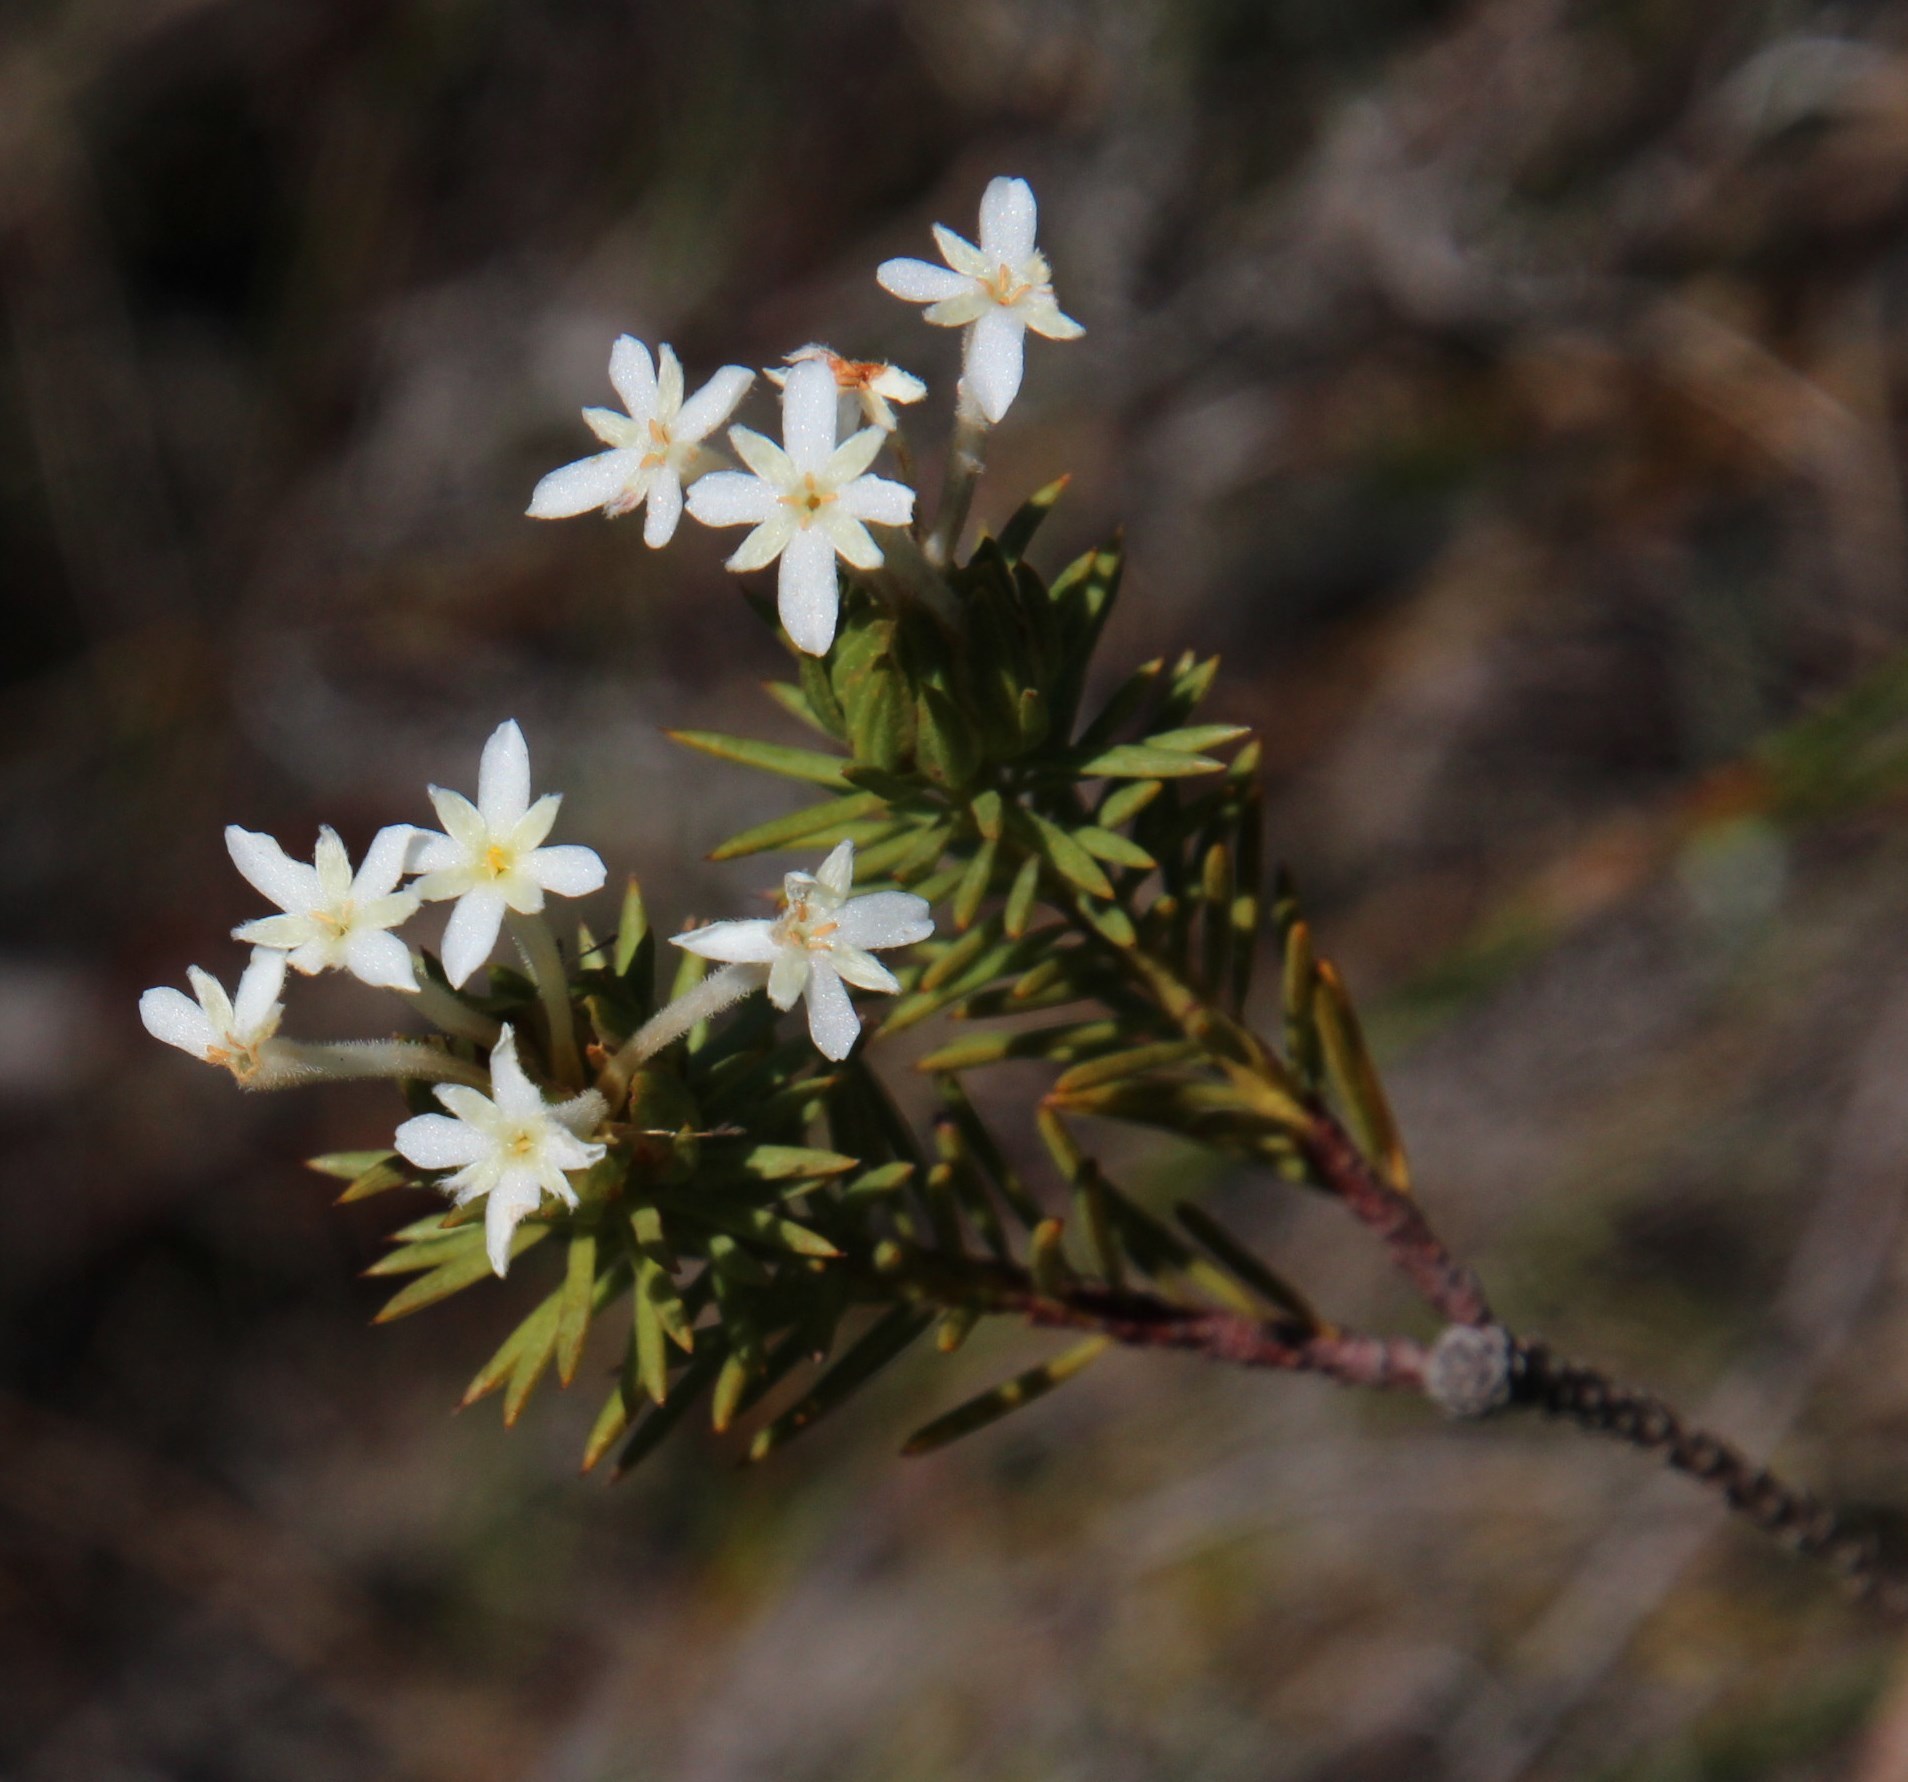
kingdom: Plantae
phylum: Tracheophyta
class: Magnoliopsida
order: Malvales
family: Thymelaeaceae
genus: Gnidia
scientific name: Gnidia pinifolia
